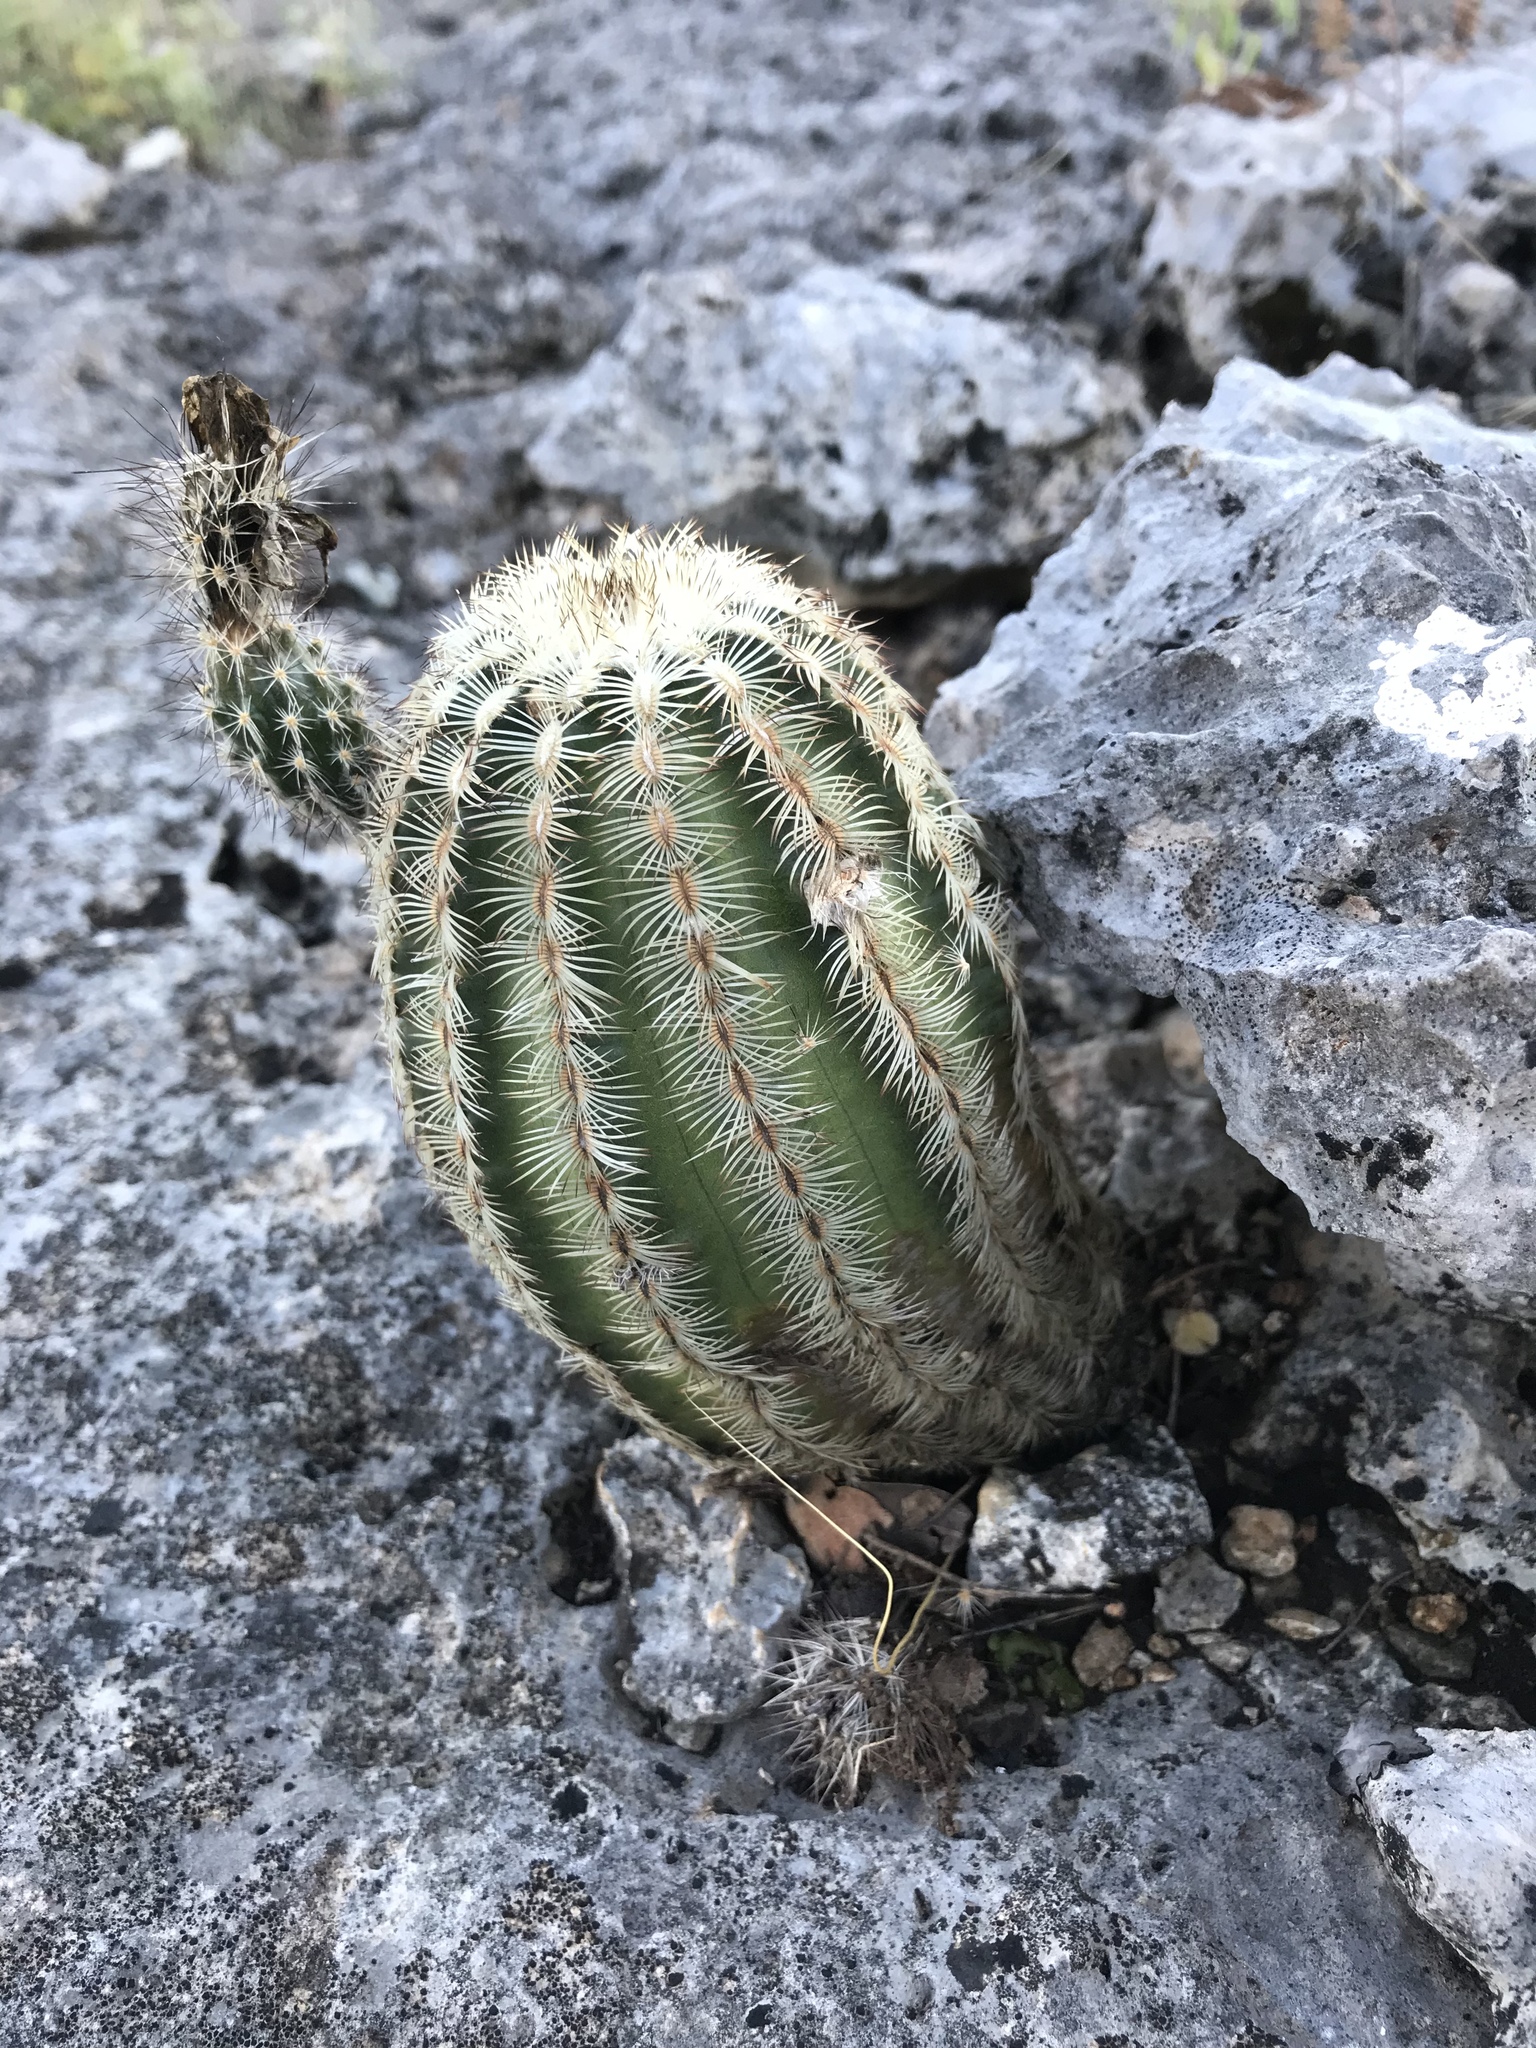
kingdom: Plantae
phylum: Tracheophyta
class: Magnoliopsida
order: Caryophyllales
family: Cactaceae
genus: Echinocereus
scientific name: Echinocereus reichenbachii
